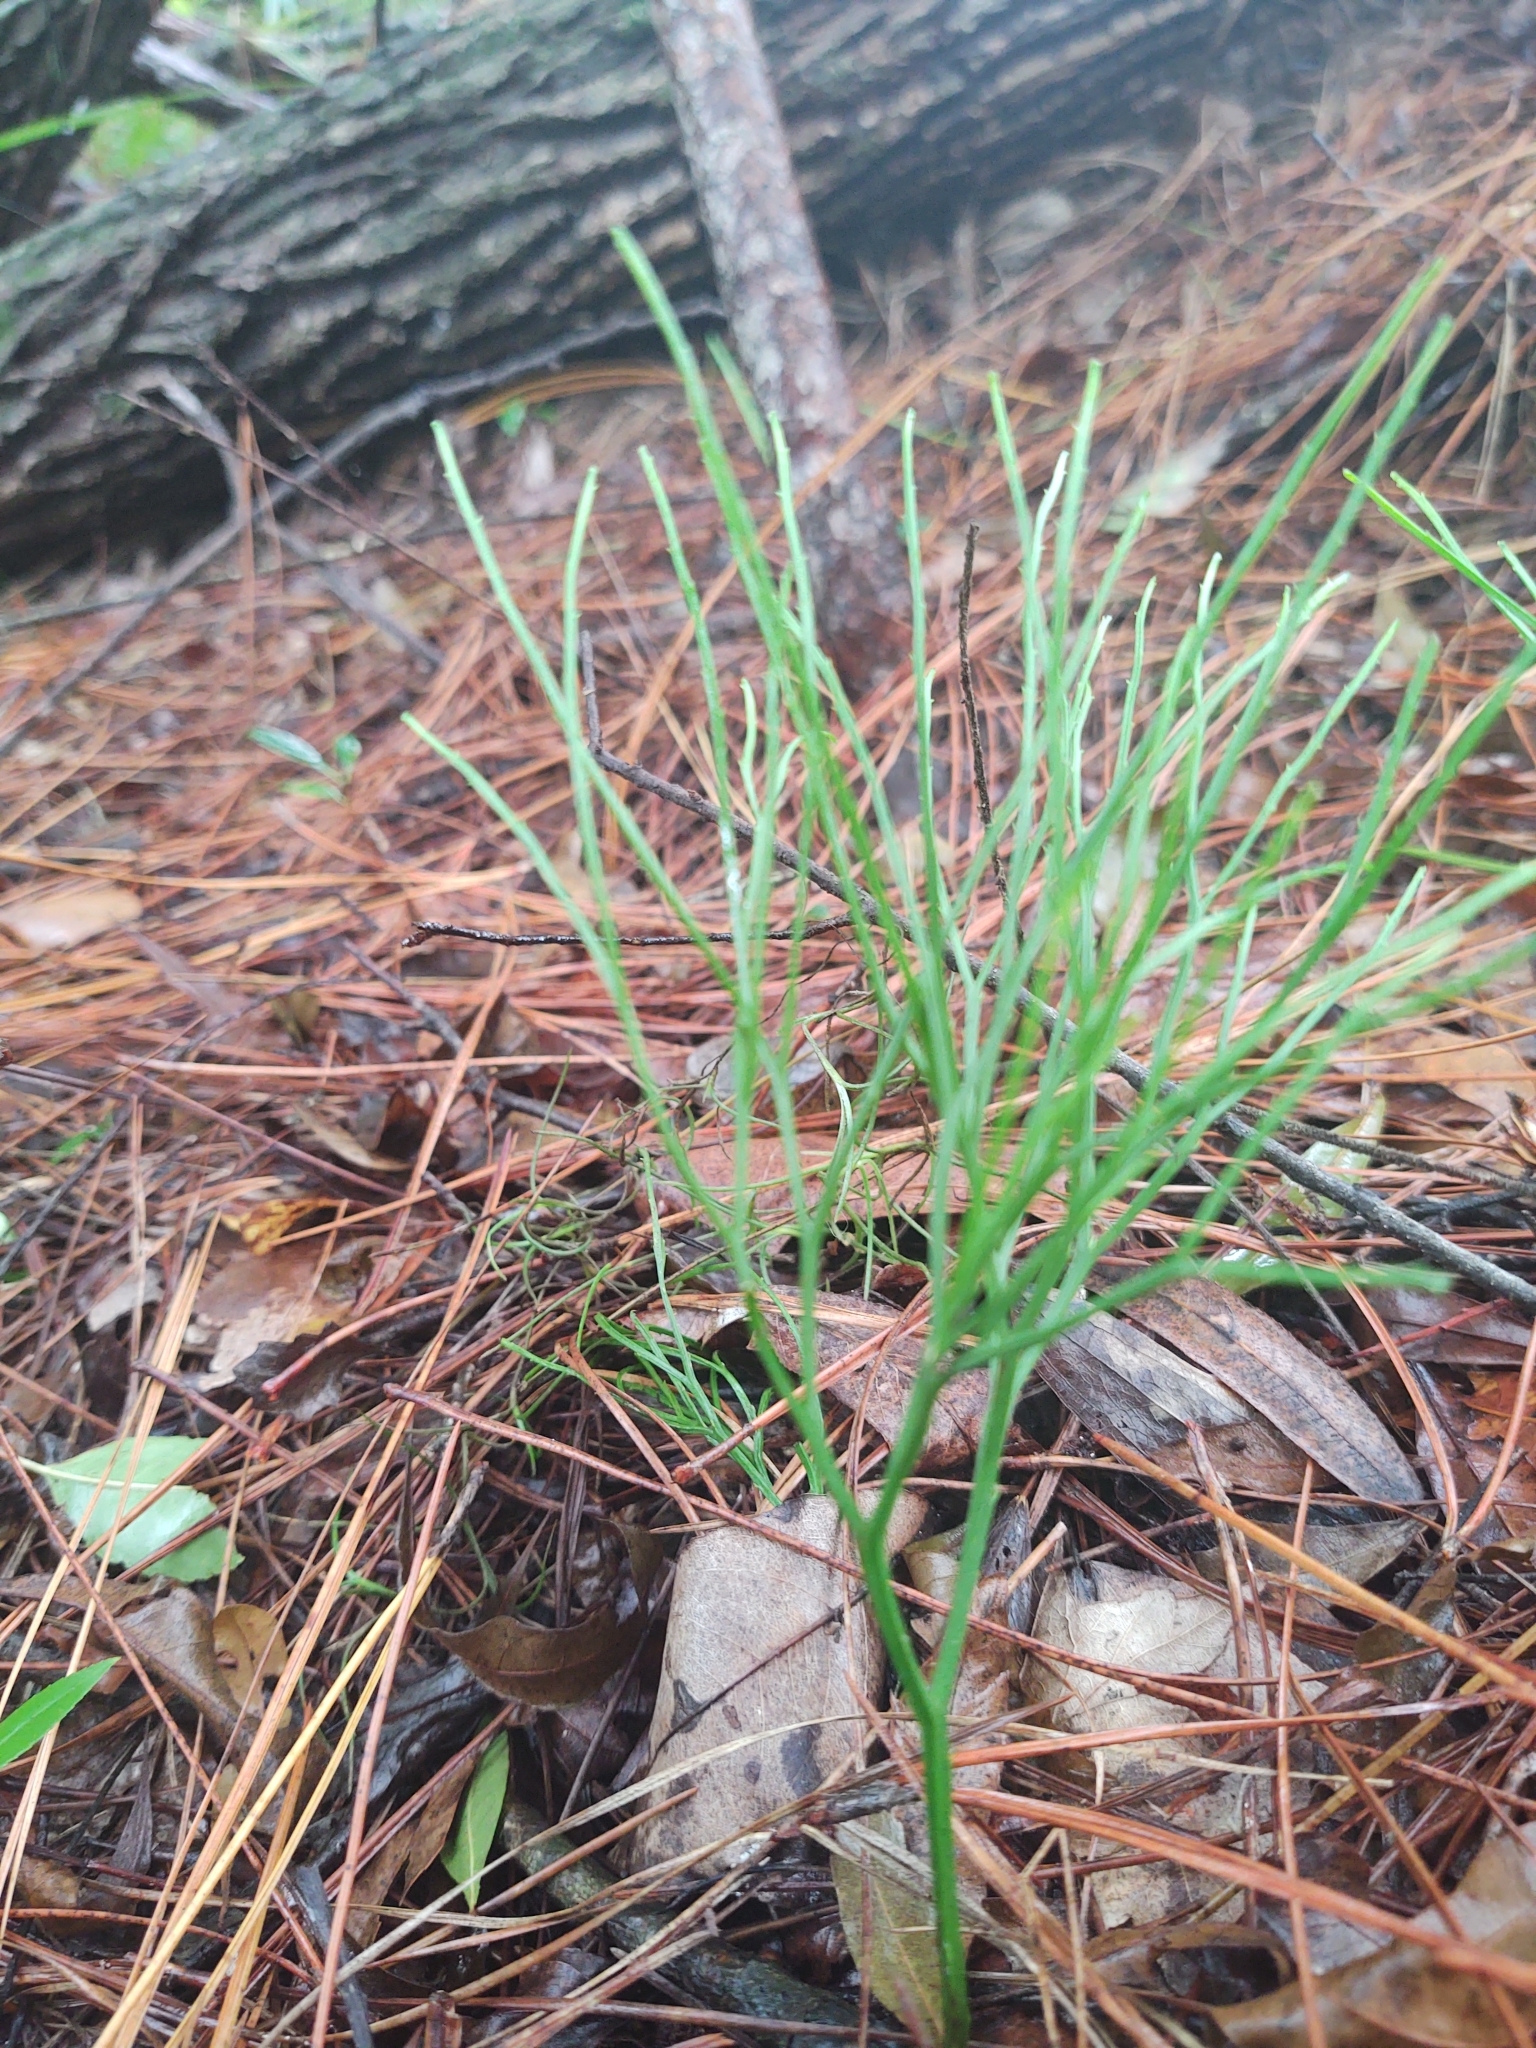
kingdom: Plantae
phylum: Tracheophyta
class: Polypodiopsida
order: Psilotales
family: Psilotaceae
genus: Psilotum
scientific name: Psilotum nudum
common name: Skeleton fork fern
